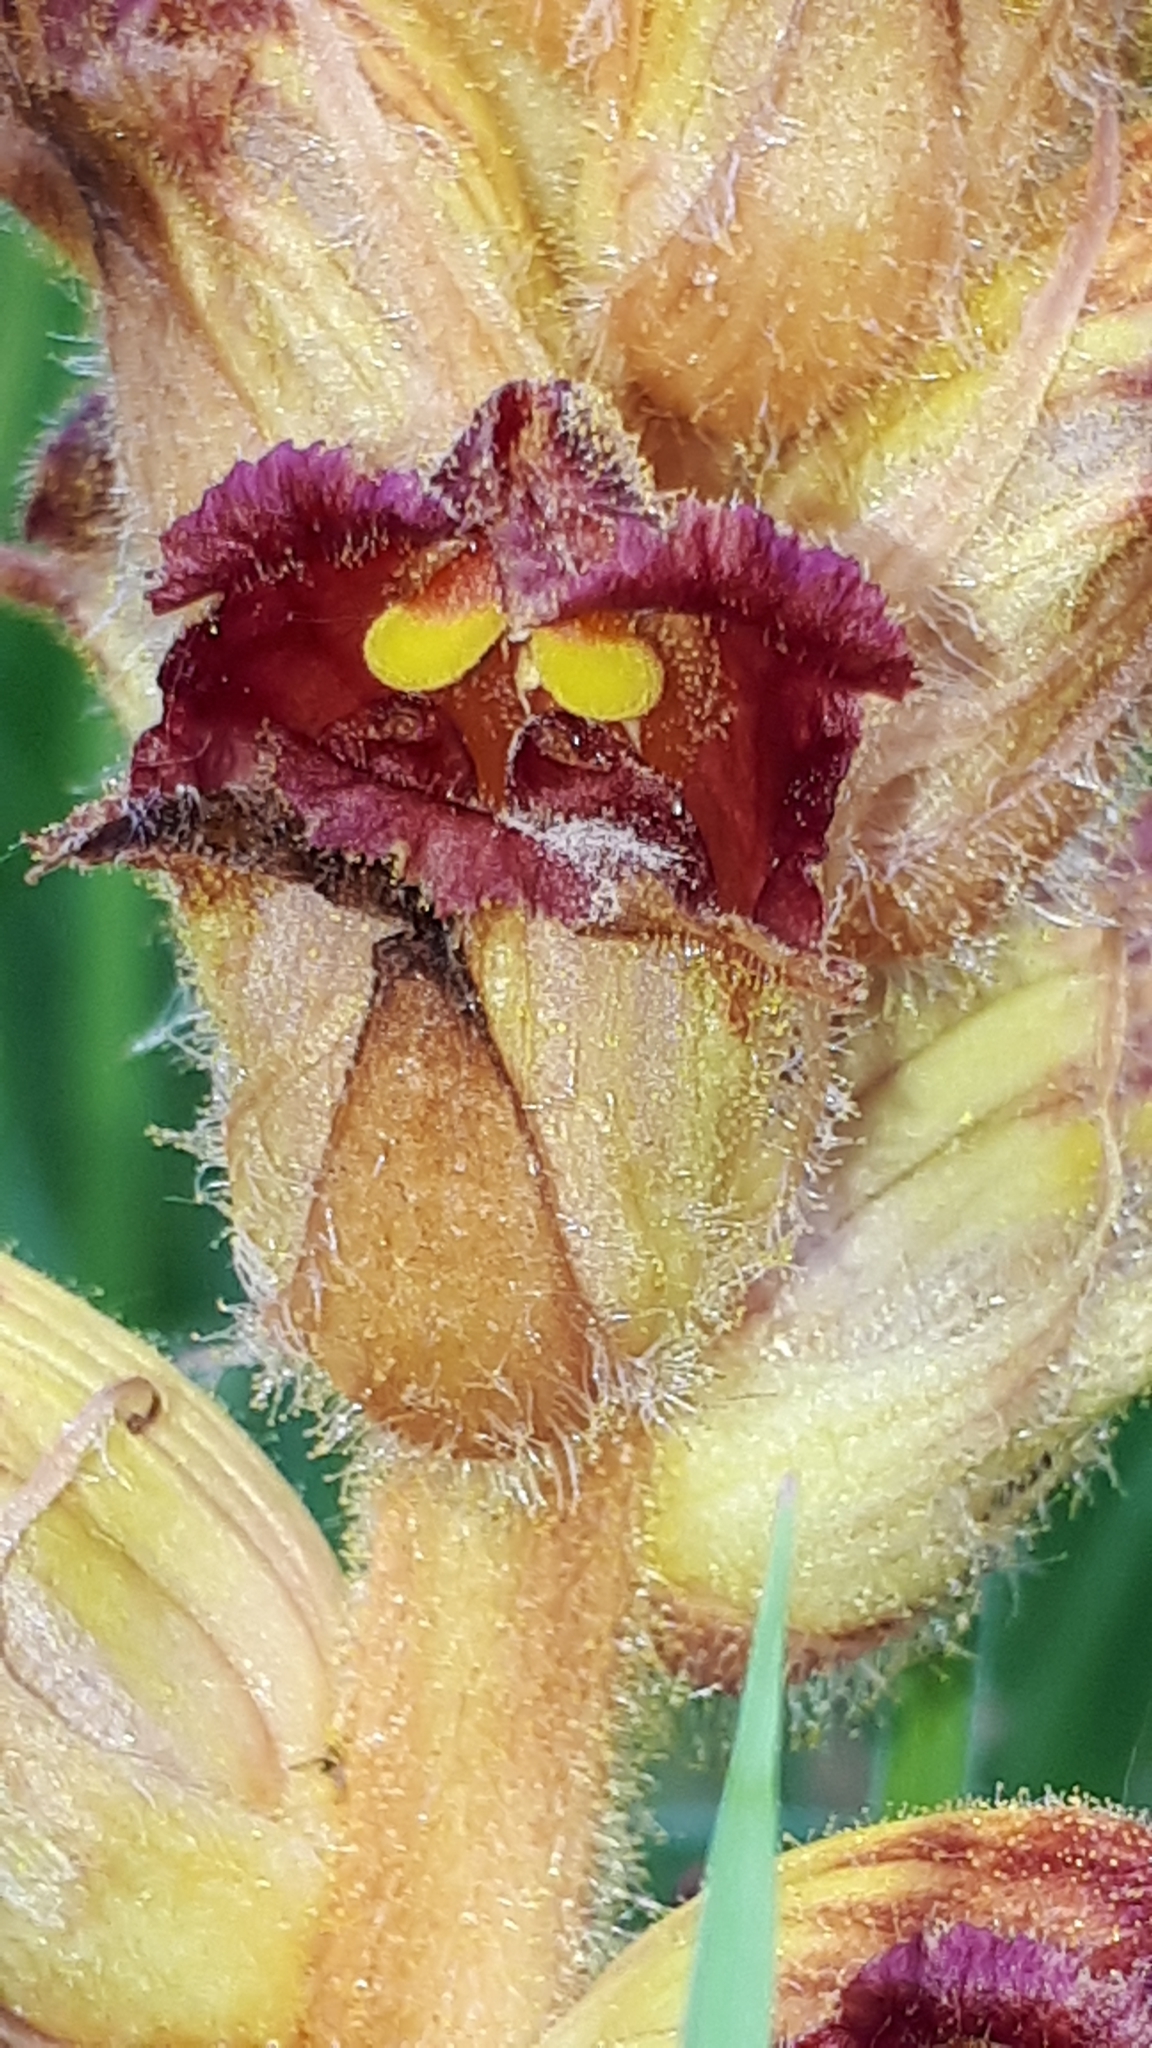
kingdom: Plantae
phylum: Tracheophyta
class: Magnoliopsida
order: Lamiales
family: Orobanchaceae
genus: Orobanche
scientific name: Orobanche gracilis
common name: Slender broomrape
